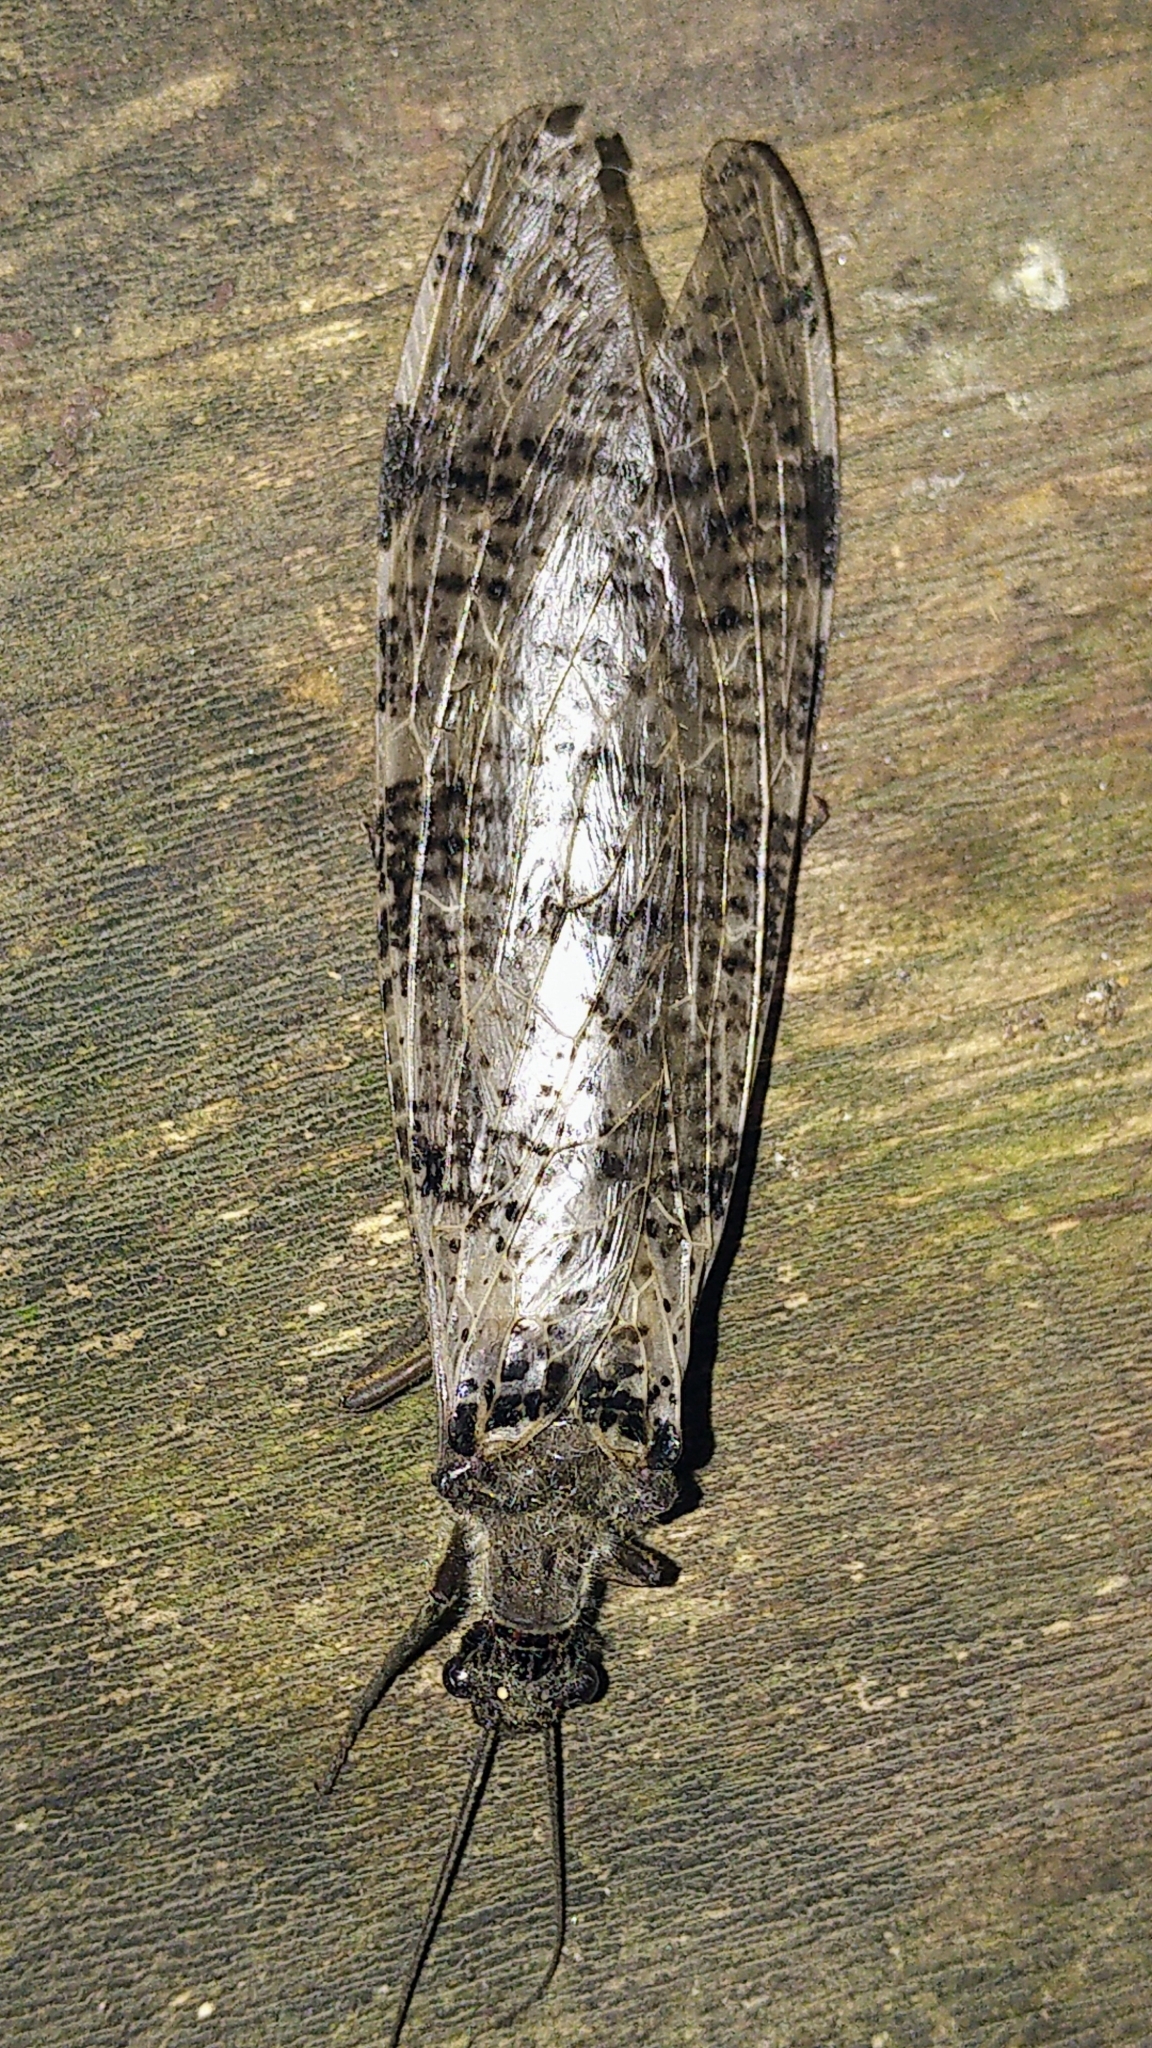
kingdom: Animalia
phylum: Arthropoda
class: Insecta
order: Megaloptera
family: Corydalidae
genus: Dysmicohermes
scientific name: Dysmicohermes disjunctus
